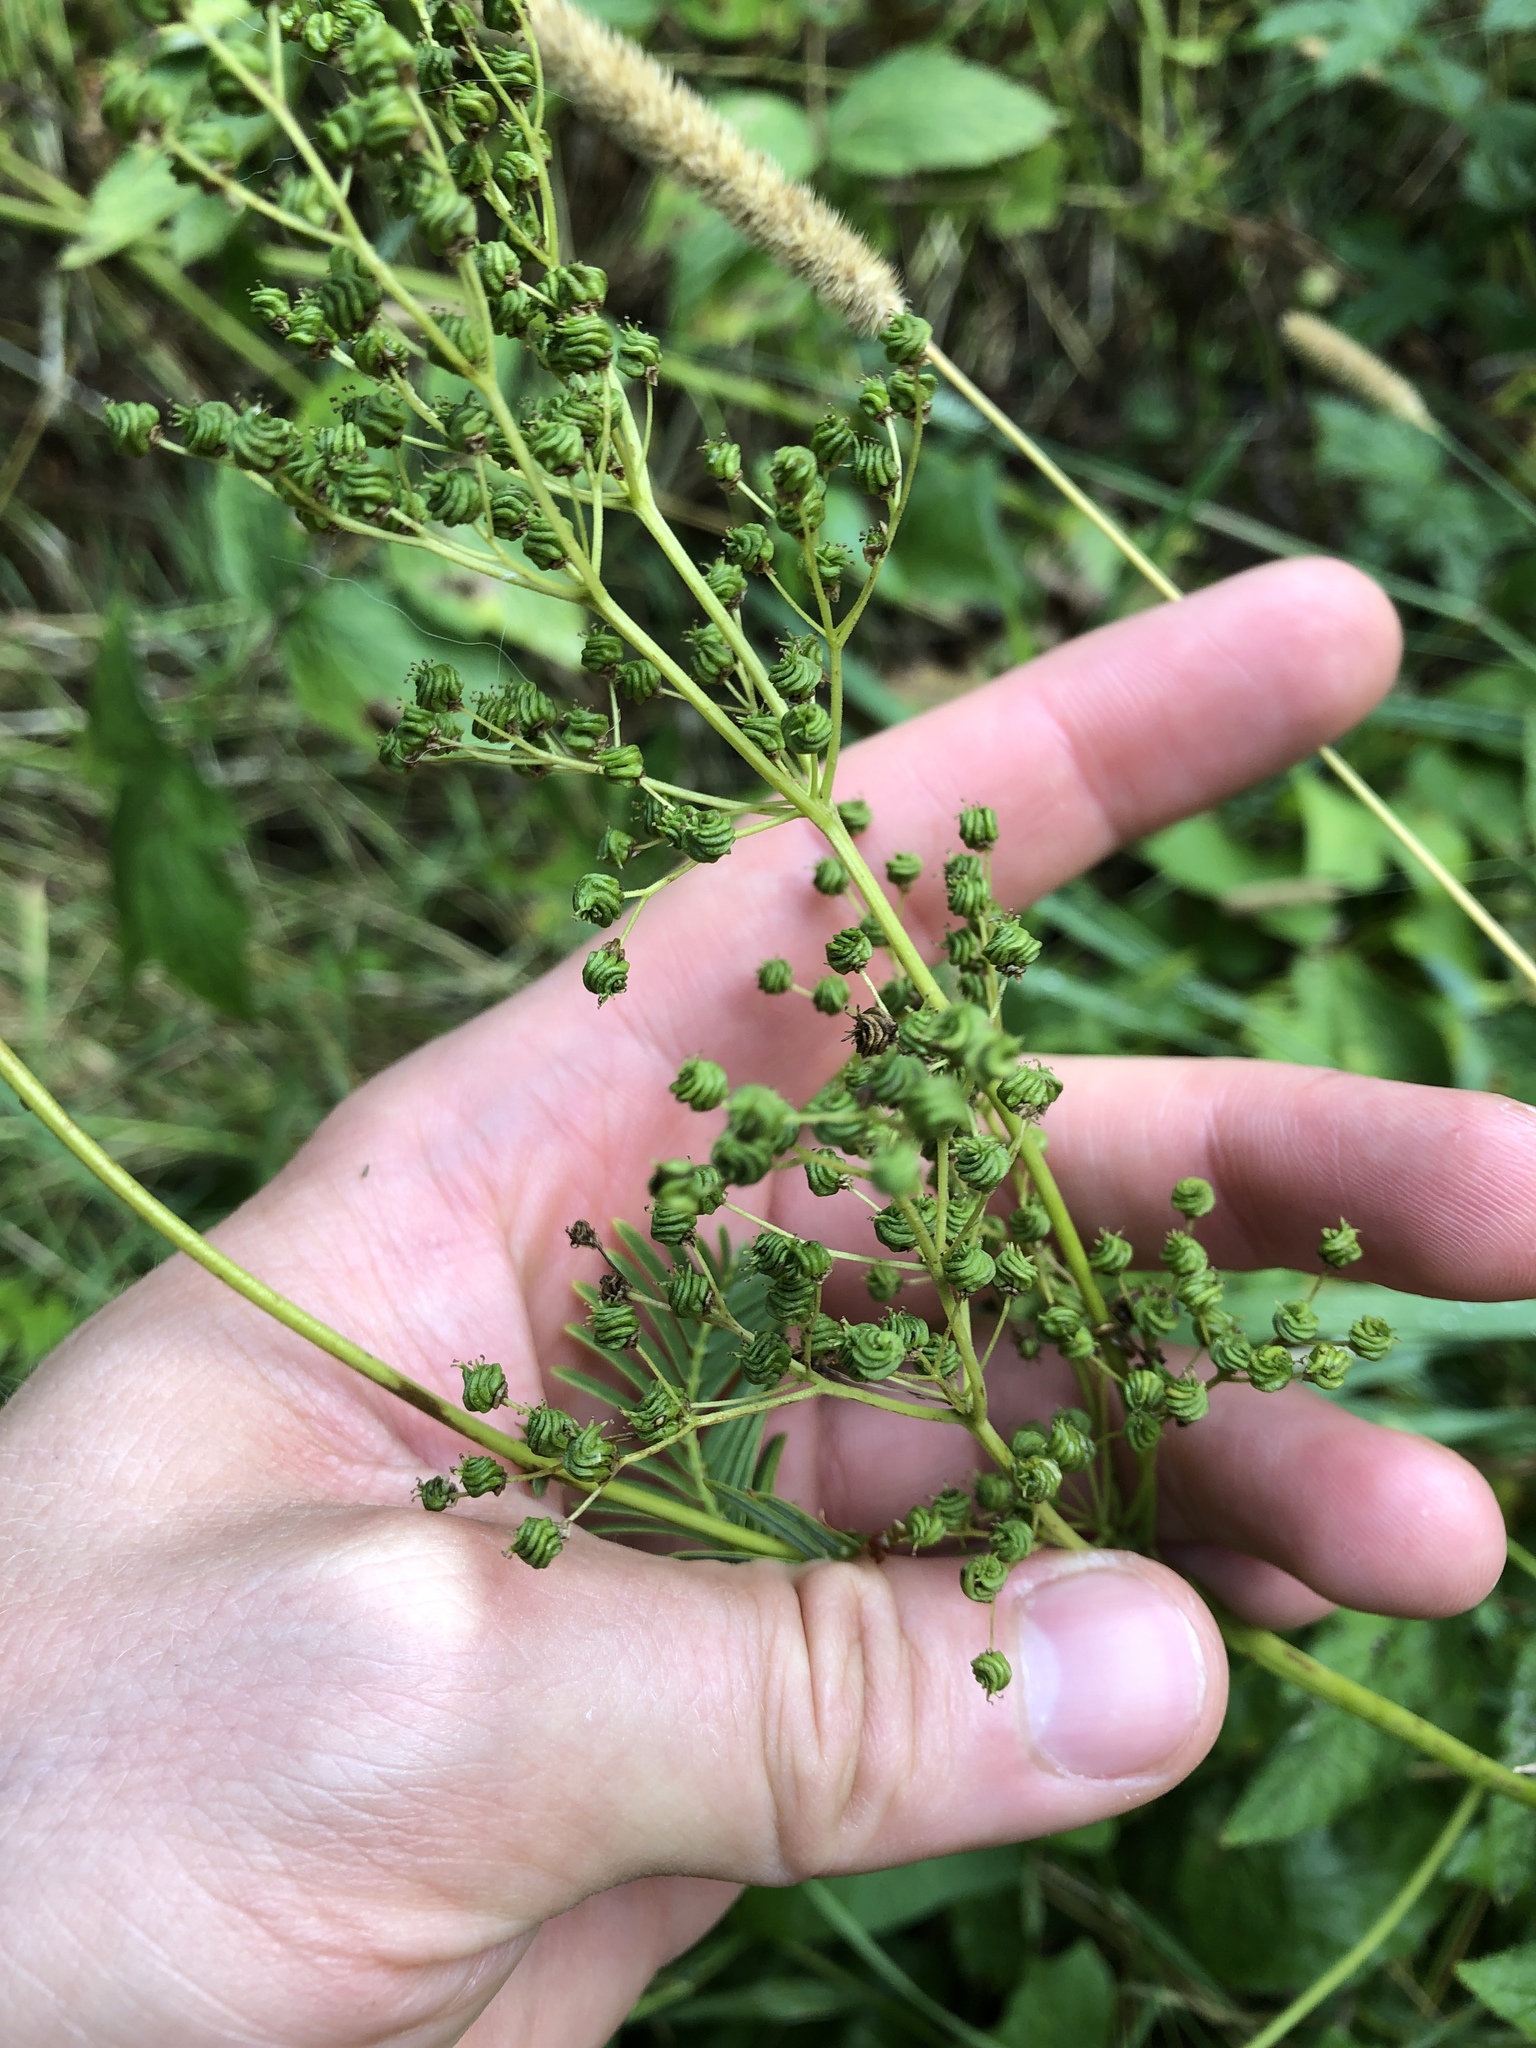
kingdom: Plantae
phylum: Tracheophyta
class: Magnoliopsida
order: Rosales
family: Rosaceae
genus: Filipendula
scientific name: Filipendula ulmaria
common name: Meadowsweet
